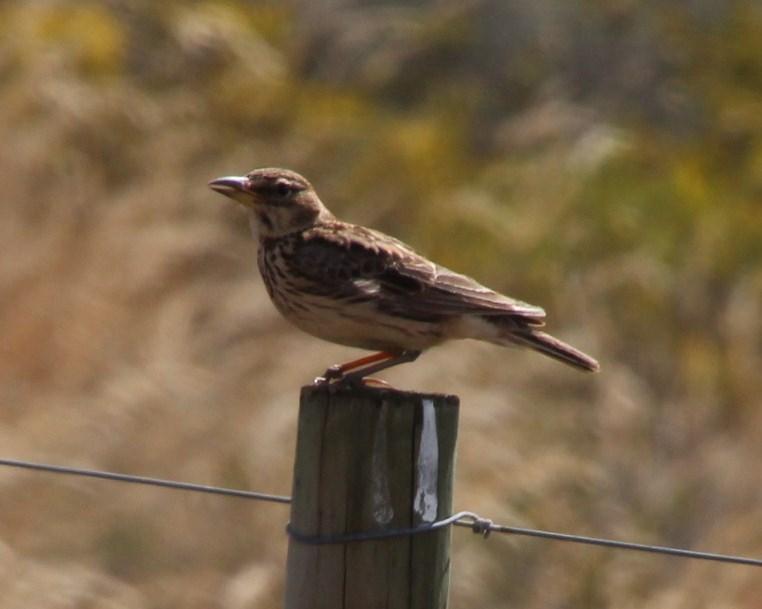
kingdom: Animalia
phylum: Chordata
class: Aves
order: Passeriformes
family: Alaudidae
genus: Galerida
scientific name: Galerida magnirostris
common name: Large-billed lark
